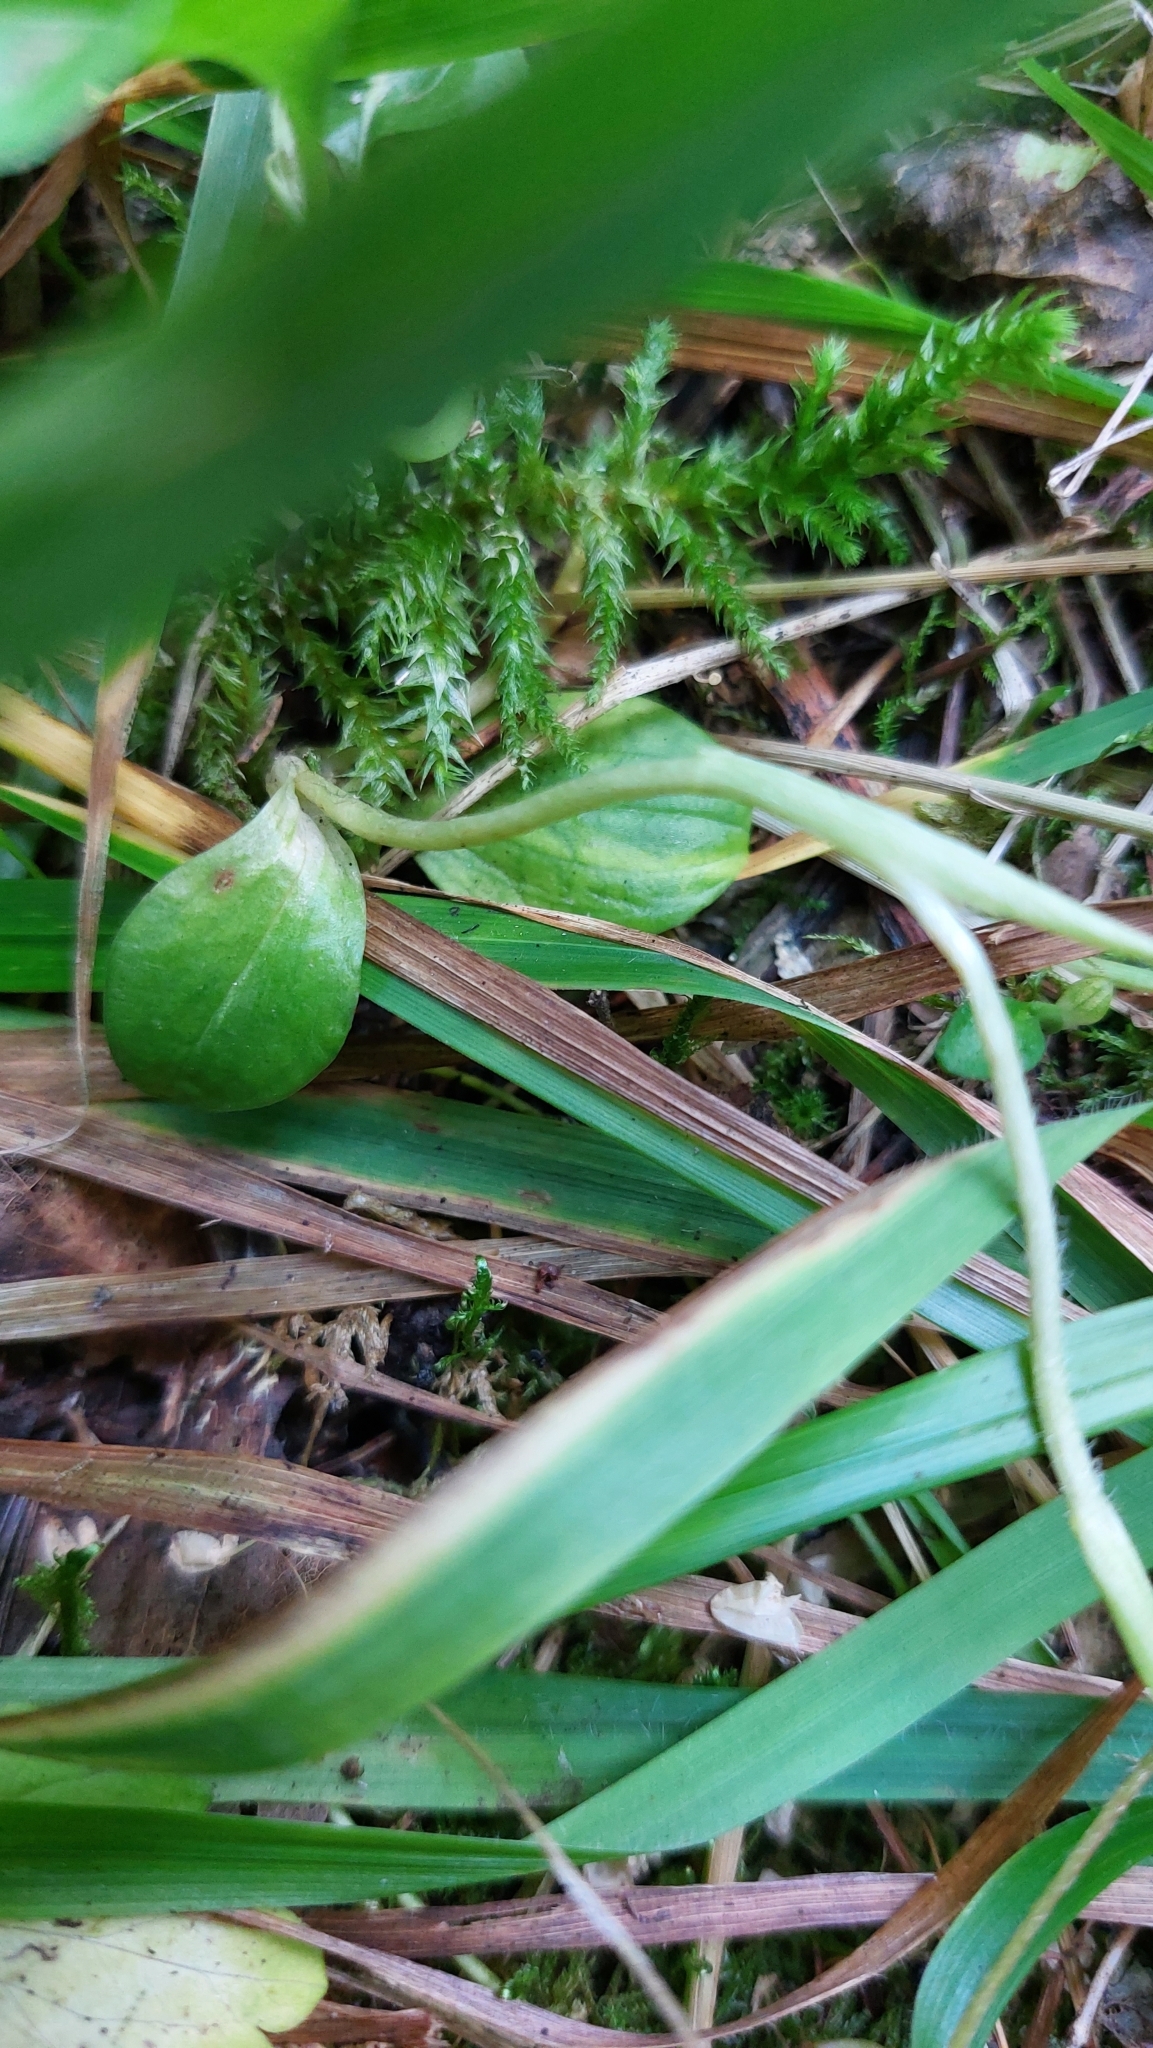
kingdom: Plantae
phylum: Tracheophyta
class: Liliopsida
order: Asparagales
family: Orchidaceae
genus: Goodyera
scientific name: Goodyera repens
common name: Creeping lady's-tresses
